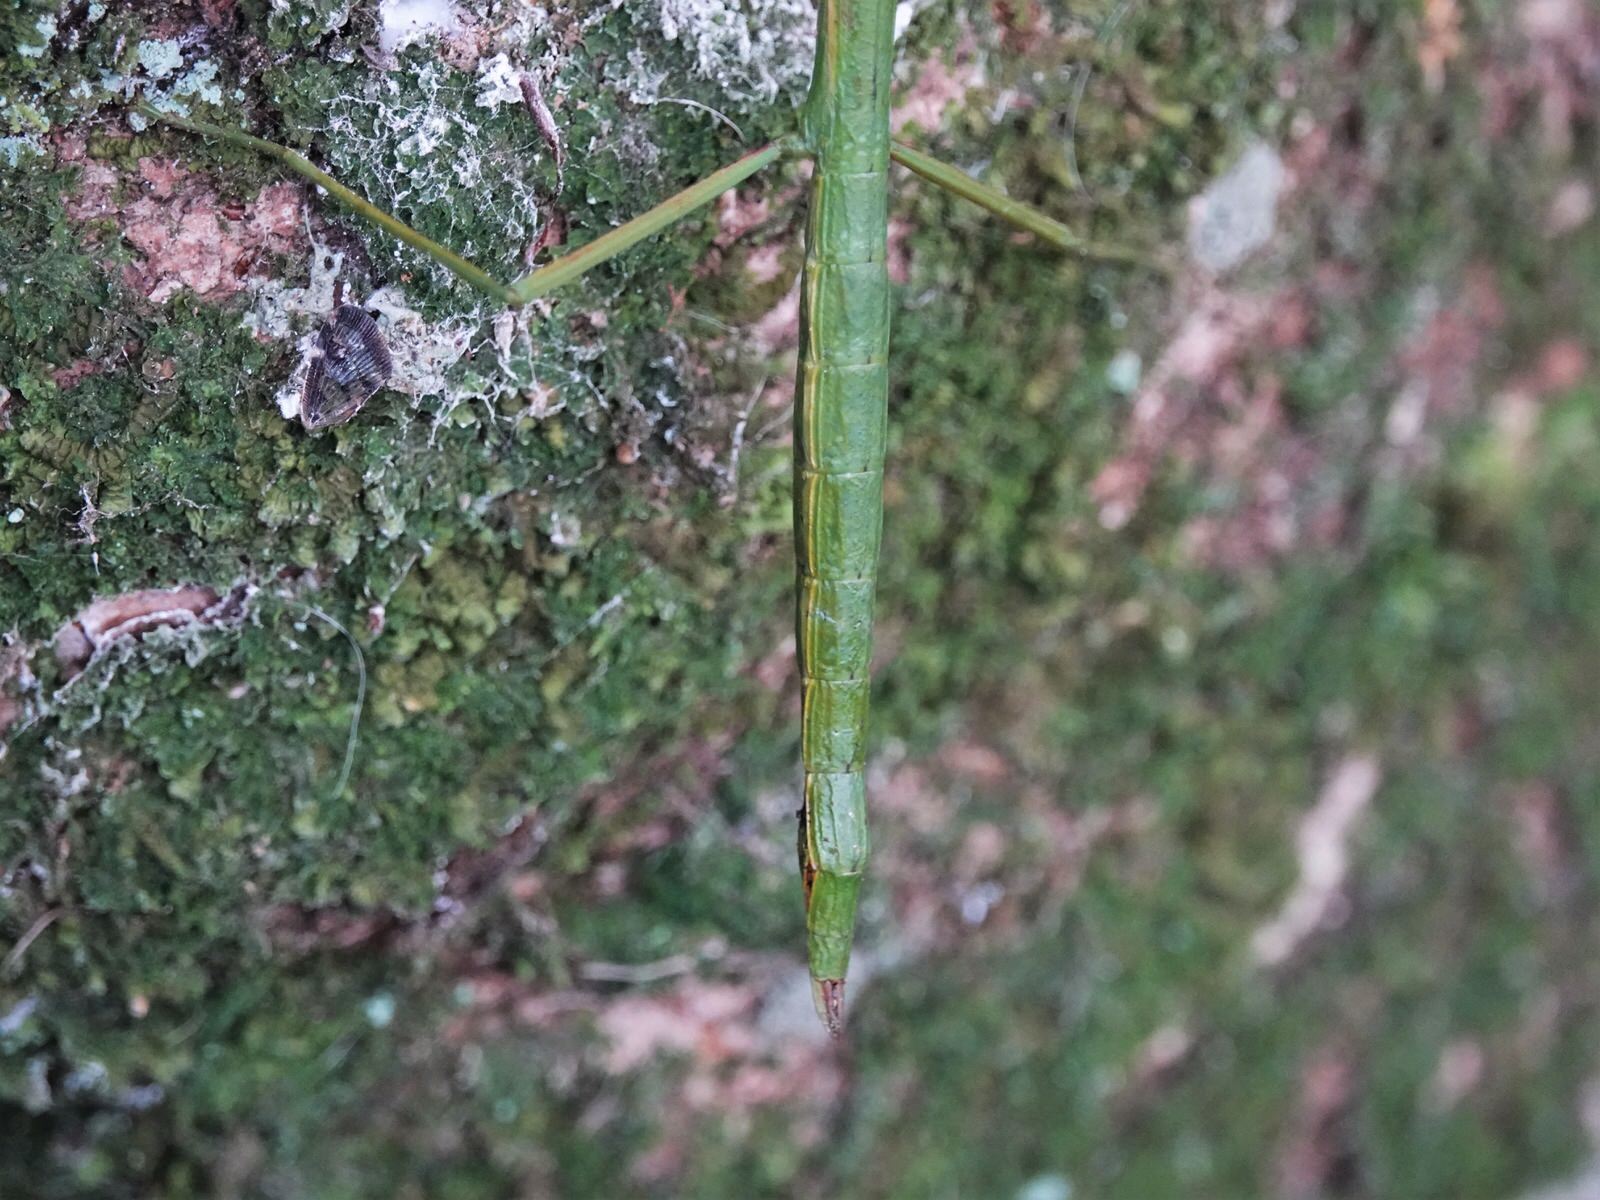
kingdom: Animalia
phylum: Arthropoda
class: Insecta
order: Phasmida
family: Phasmatidae
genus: Clitarchus
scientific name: Clitarchus hookeri
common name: Smooth stick insect
